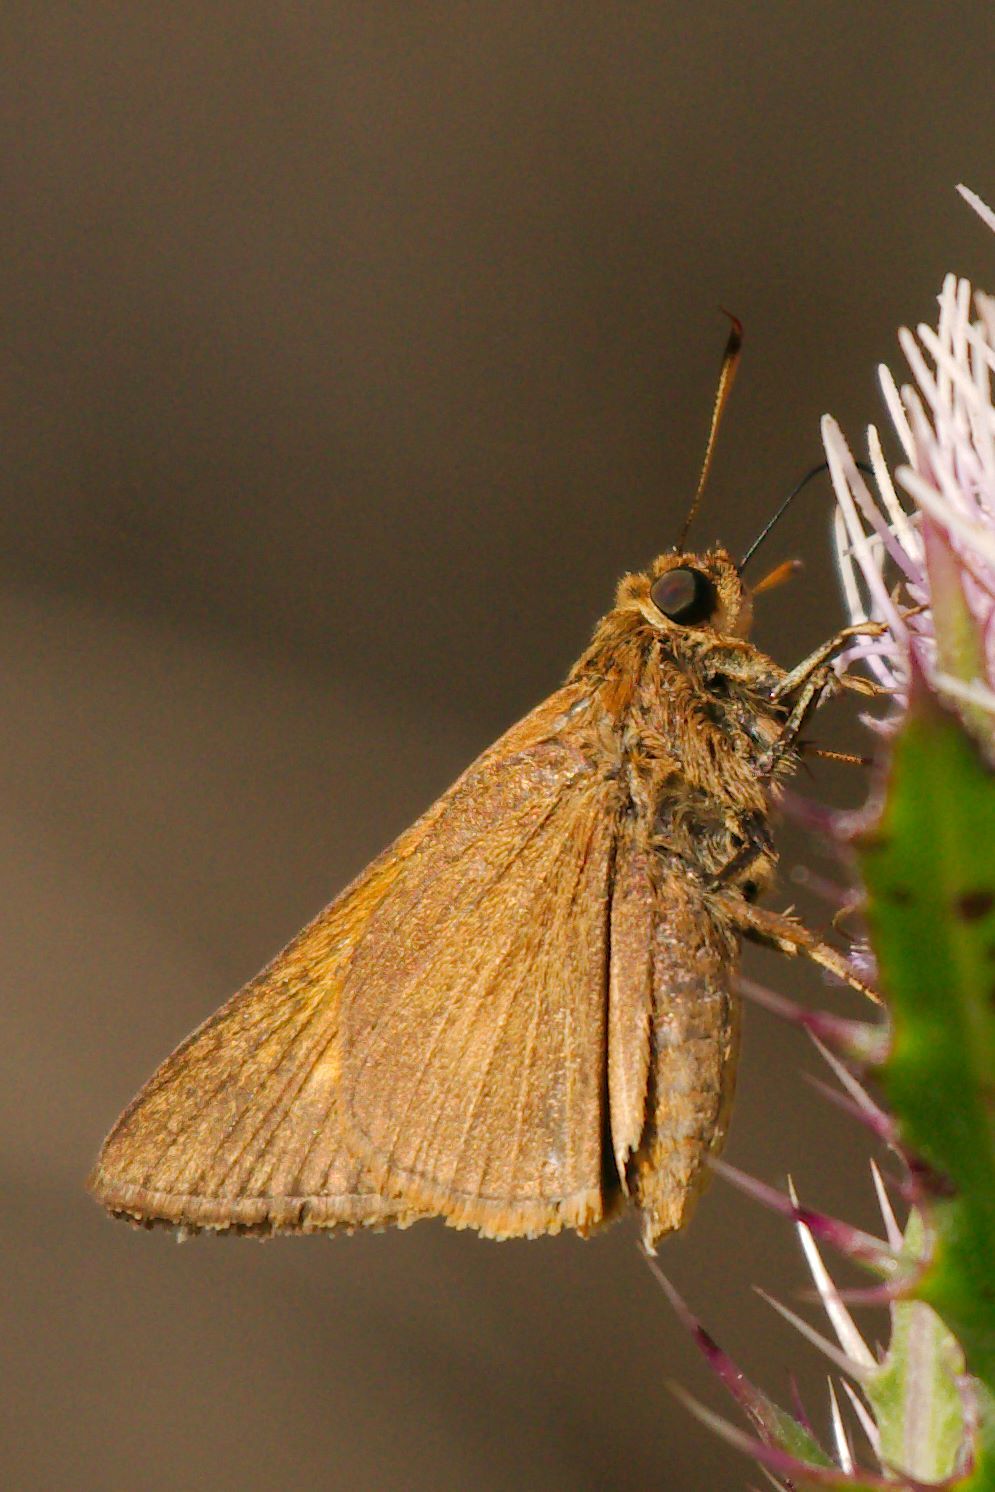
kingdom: Animalia
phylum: Arthropoda
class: Insecta
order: Lepidoptera
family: Hesperiidae
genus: Euphyes
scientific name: Euphyes pilatka
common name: Palatka skipper
